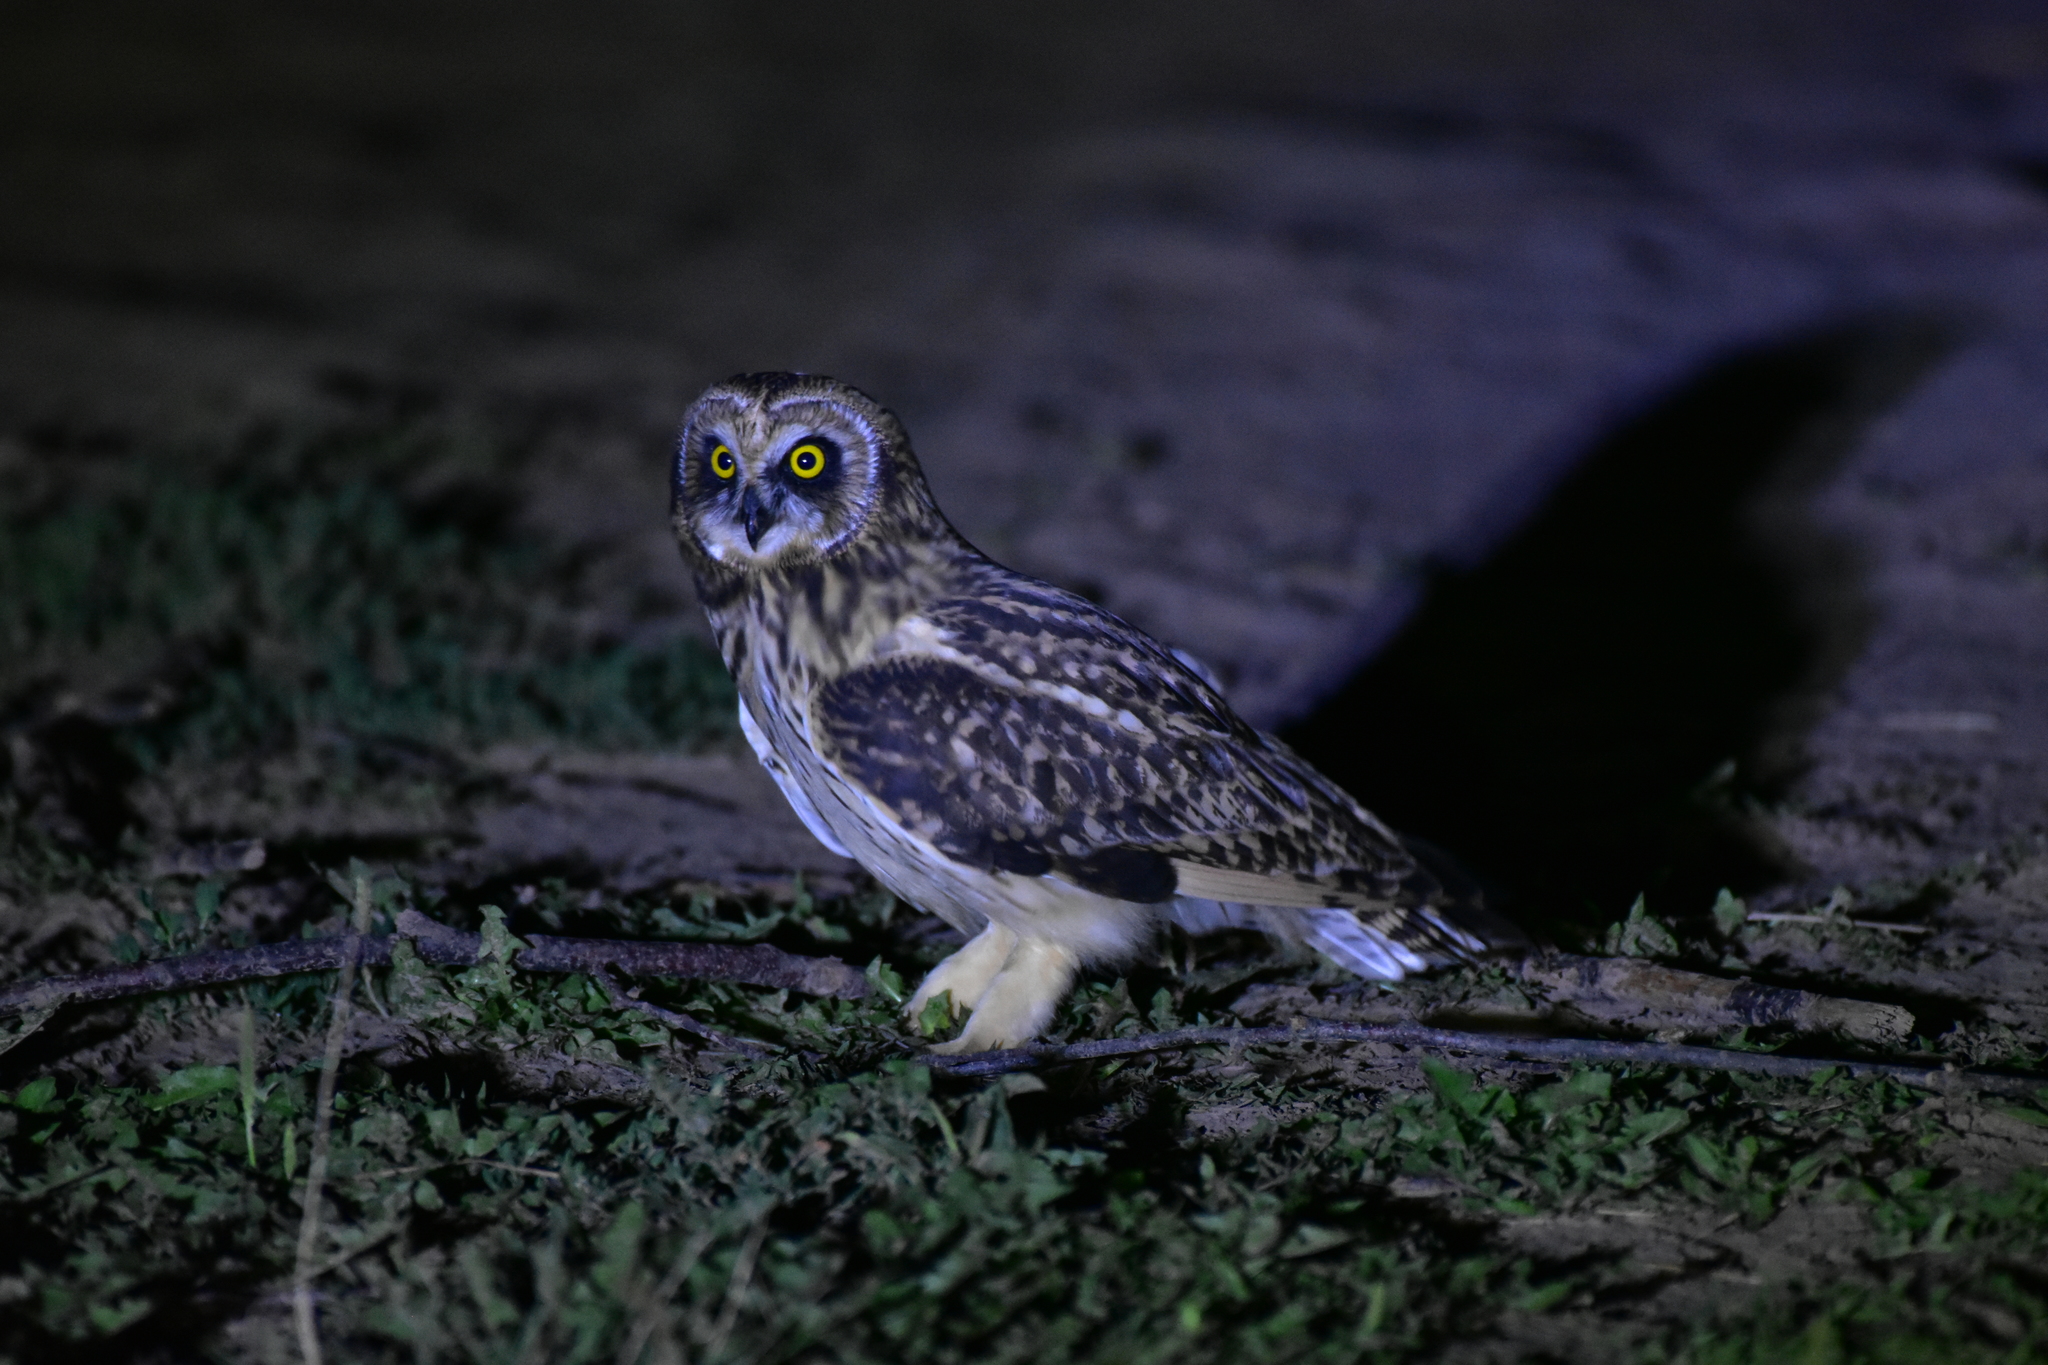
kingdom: Animalia
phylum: Chordata
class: Aves
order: Strigiformes
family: Strigidae
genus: Asio
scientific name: Asio flammeus
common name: Short-eared owl
